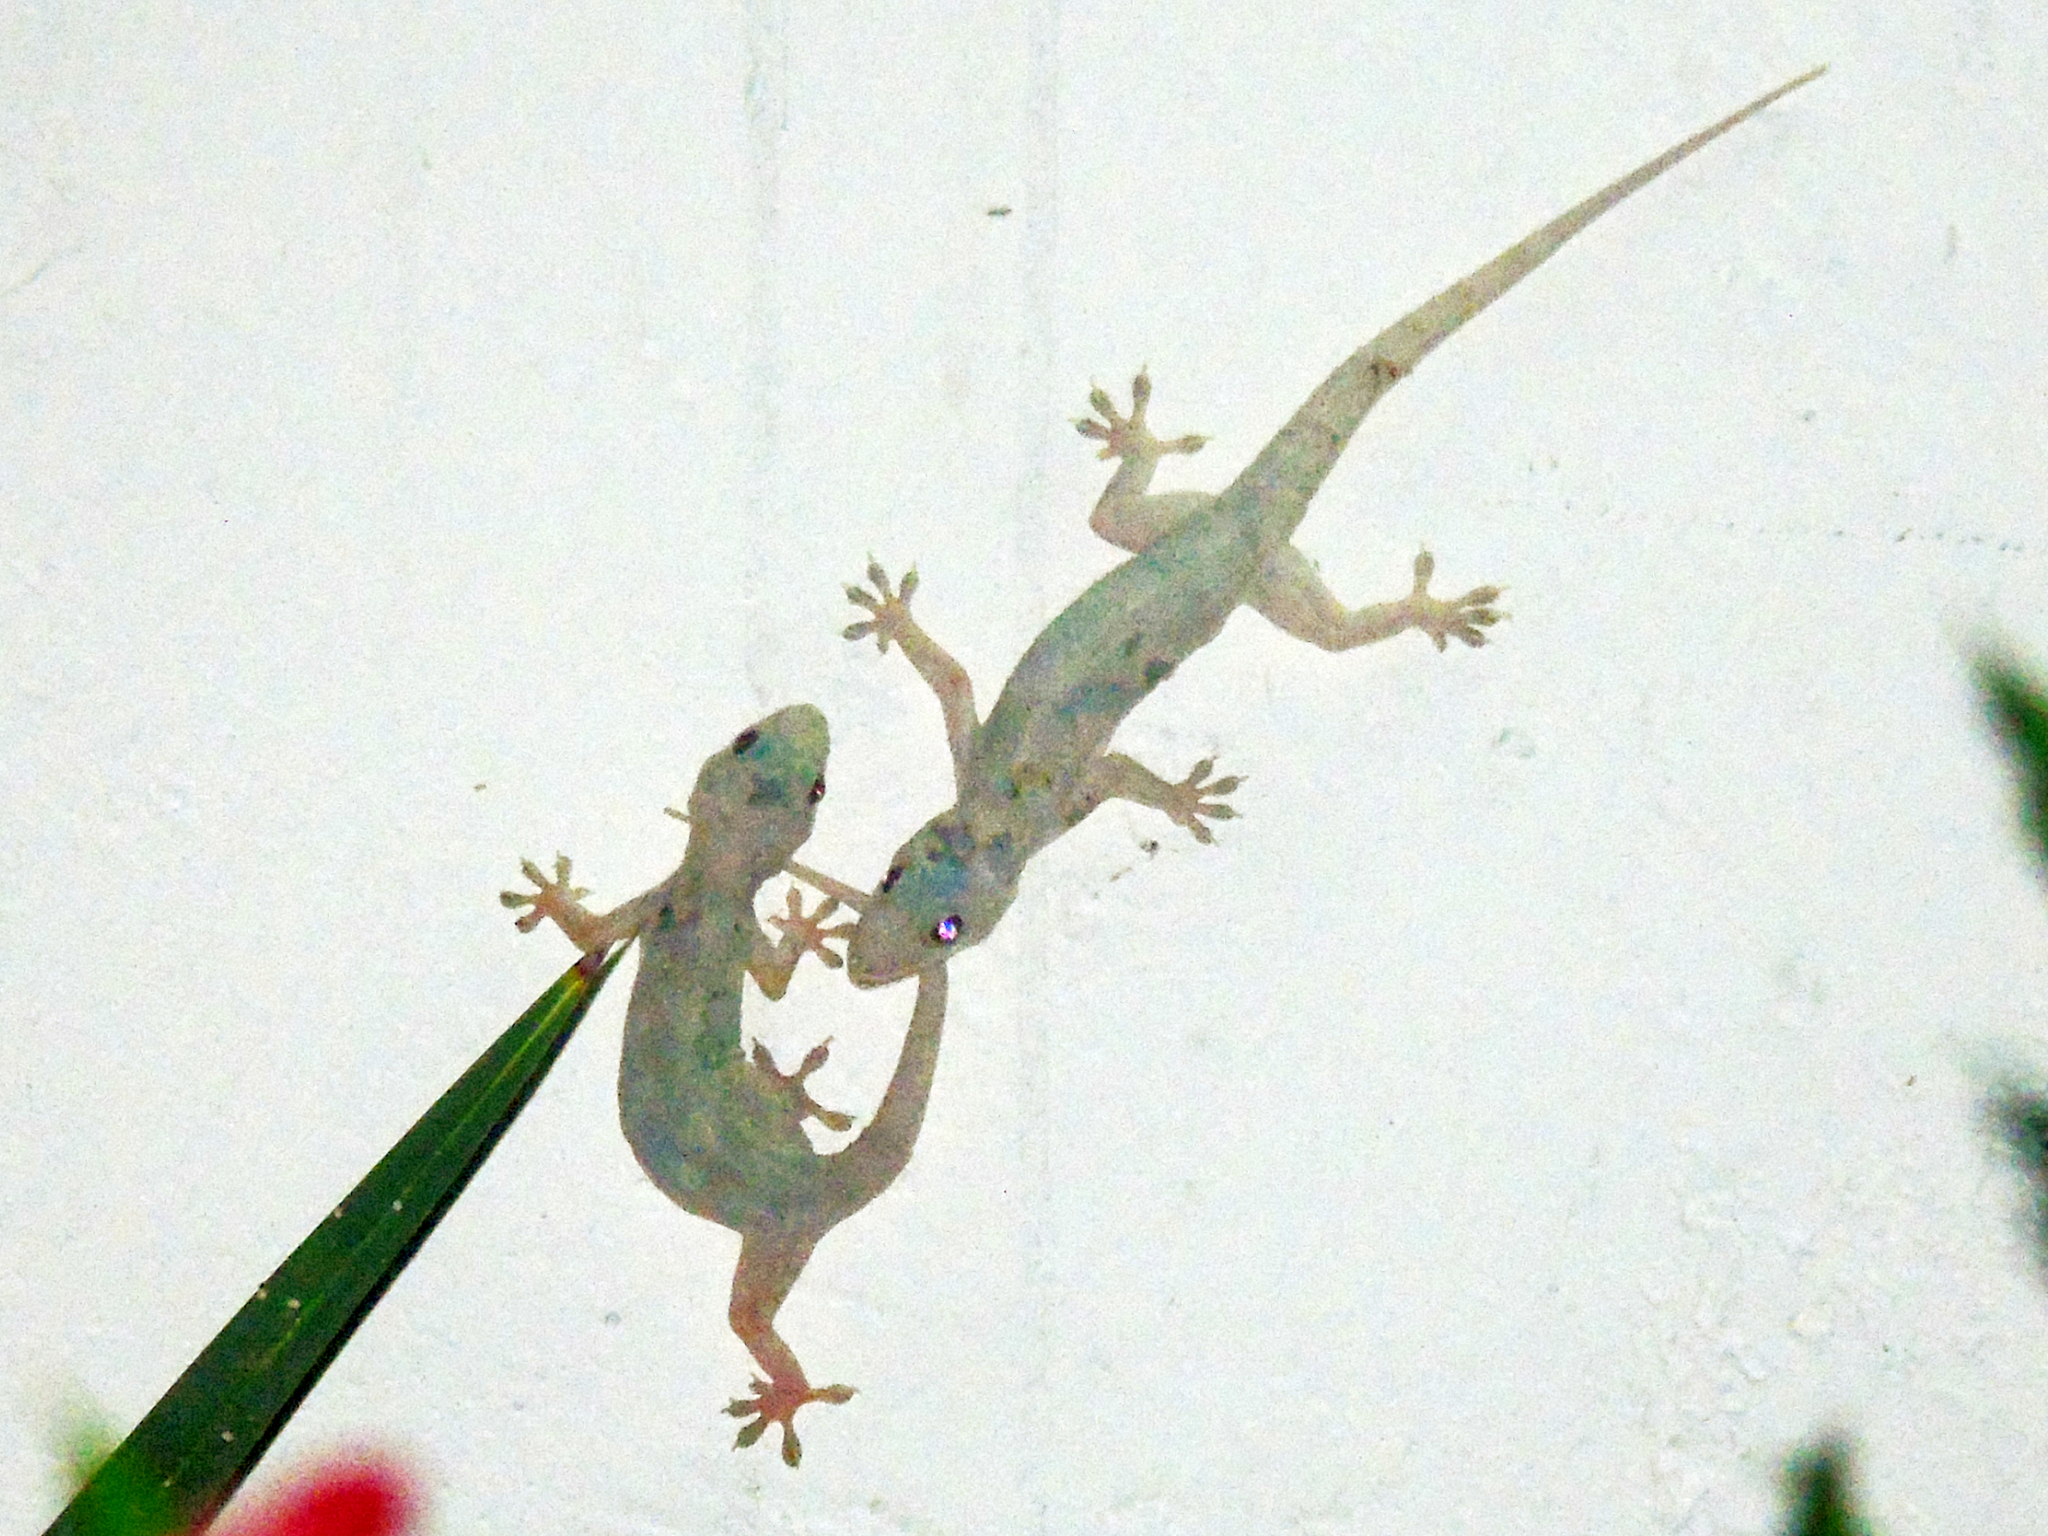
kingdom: Animalia
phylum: Chordata
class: Squamata
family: Gekkonidae
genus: Hemidactylus
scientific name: Hemidactylus mabouia
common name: House gecko
